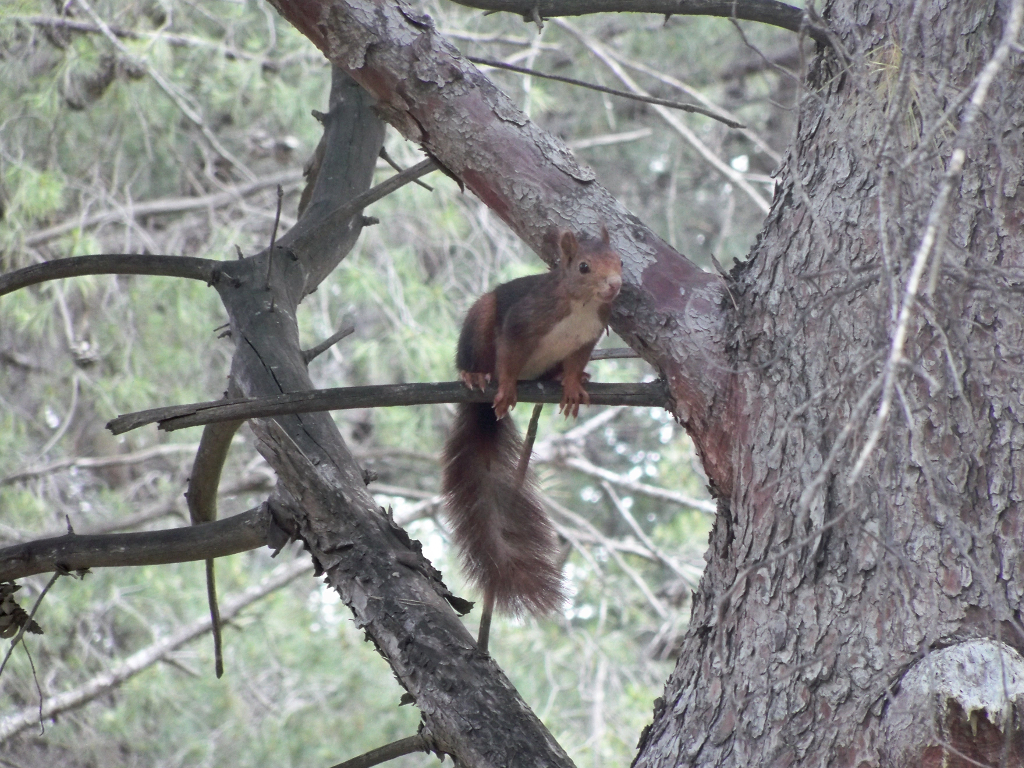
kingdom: Animalia
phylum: Chordata
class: Mammalia
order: Rodentia
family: Sciuridae
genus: Sciurus
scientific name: Sciurus vulgaris
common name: Eurasian red squirrel
